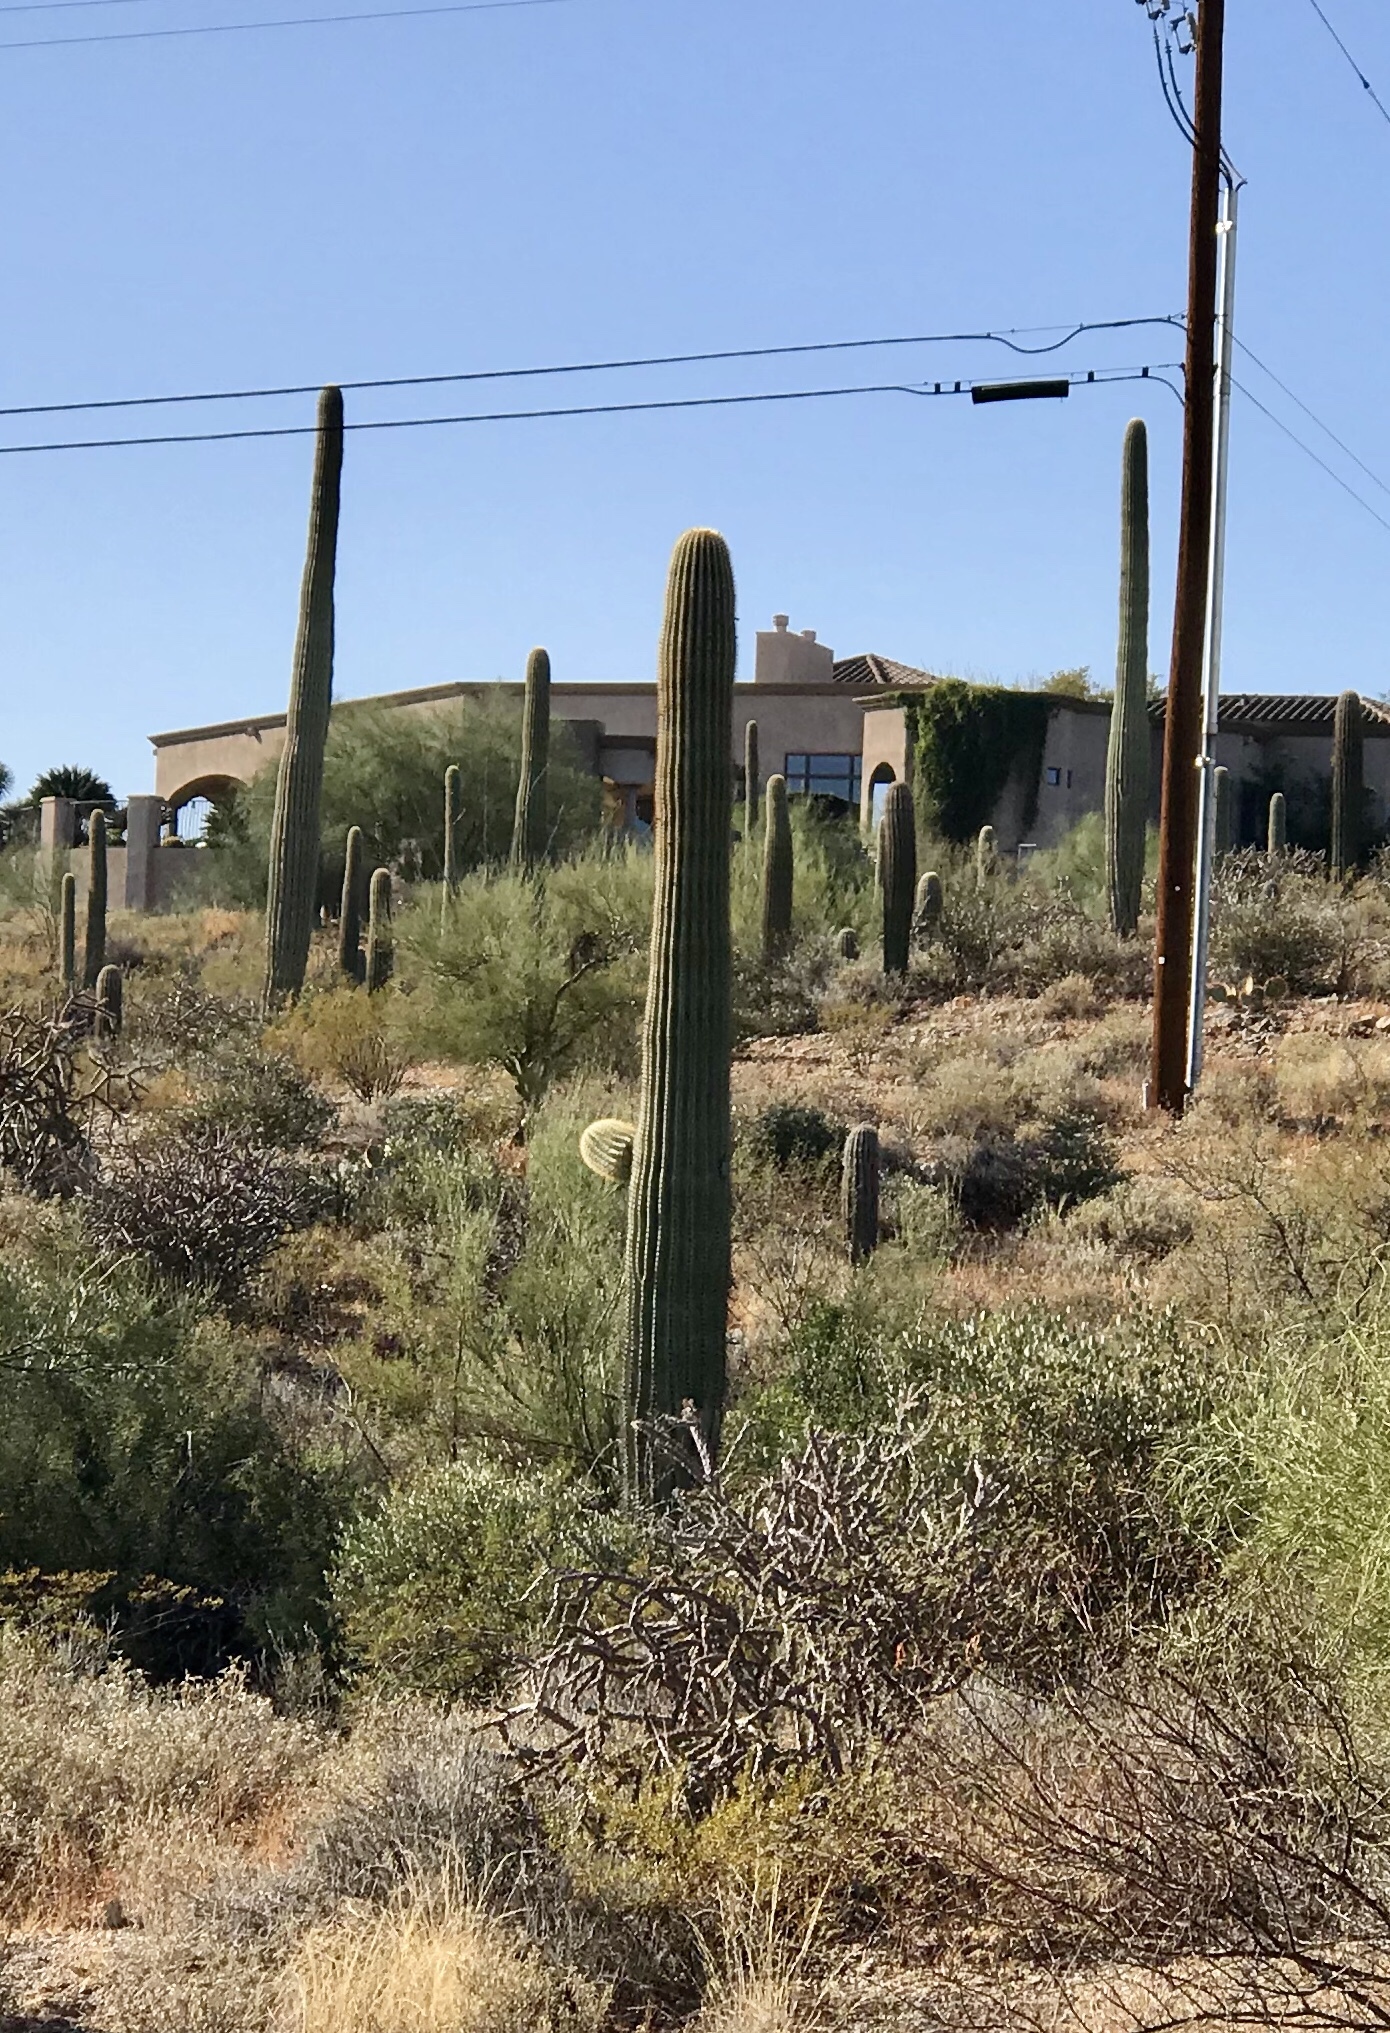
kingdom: Plantae
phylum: Tracheophyta
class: Magnoliopsida
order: Caryophyllales
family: Cactaceae
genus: Carnegiea
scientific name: Carnegiea gigantea
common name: Saguaro
